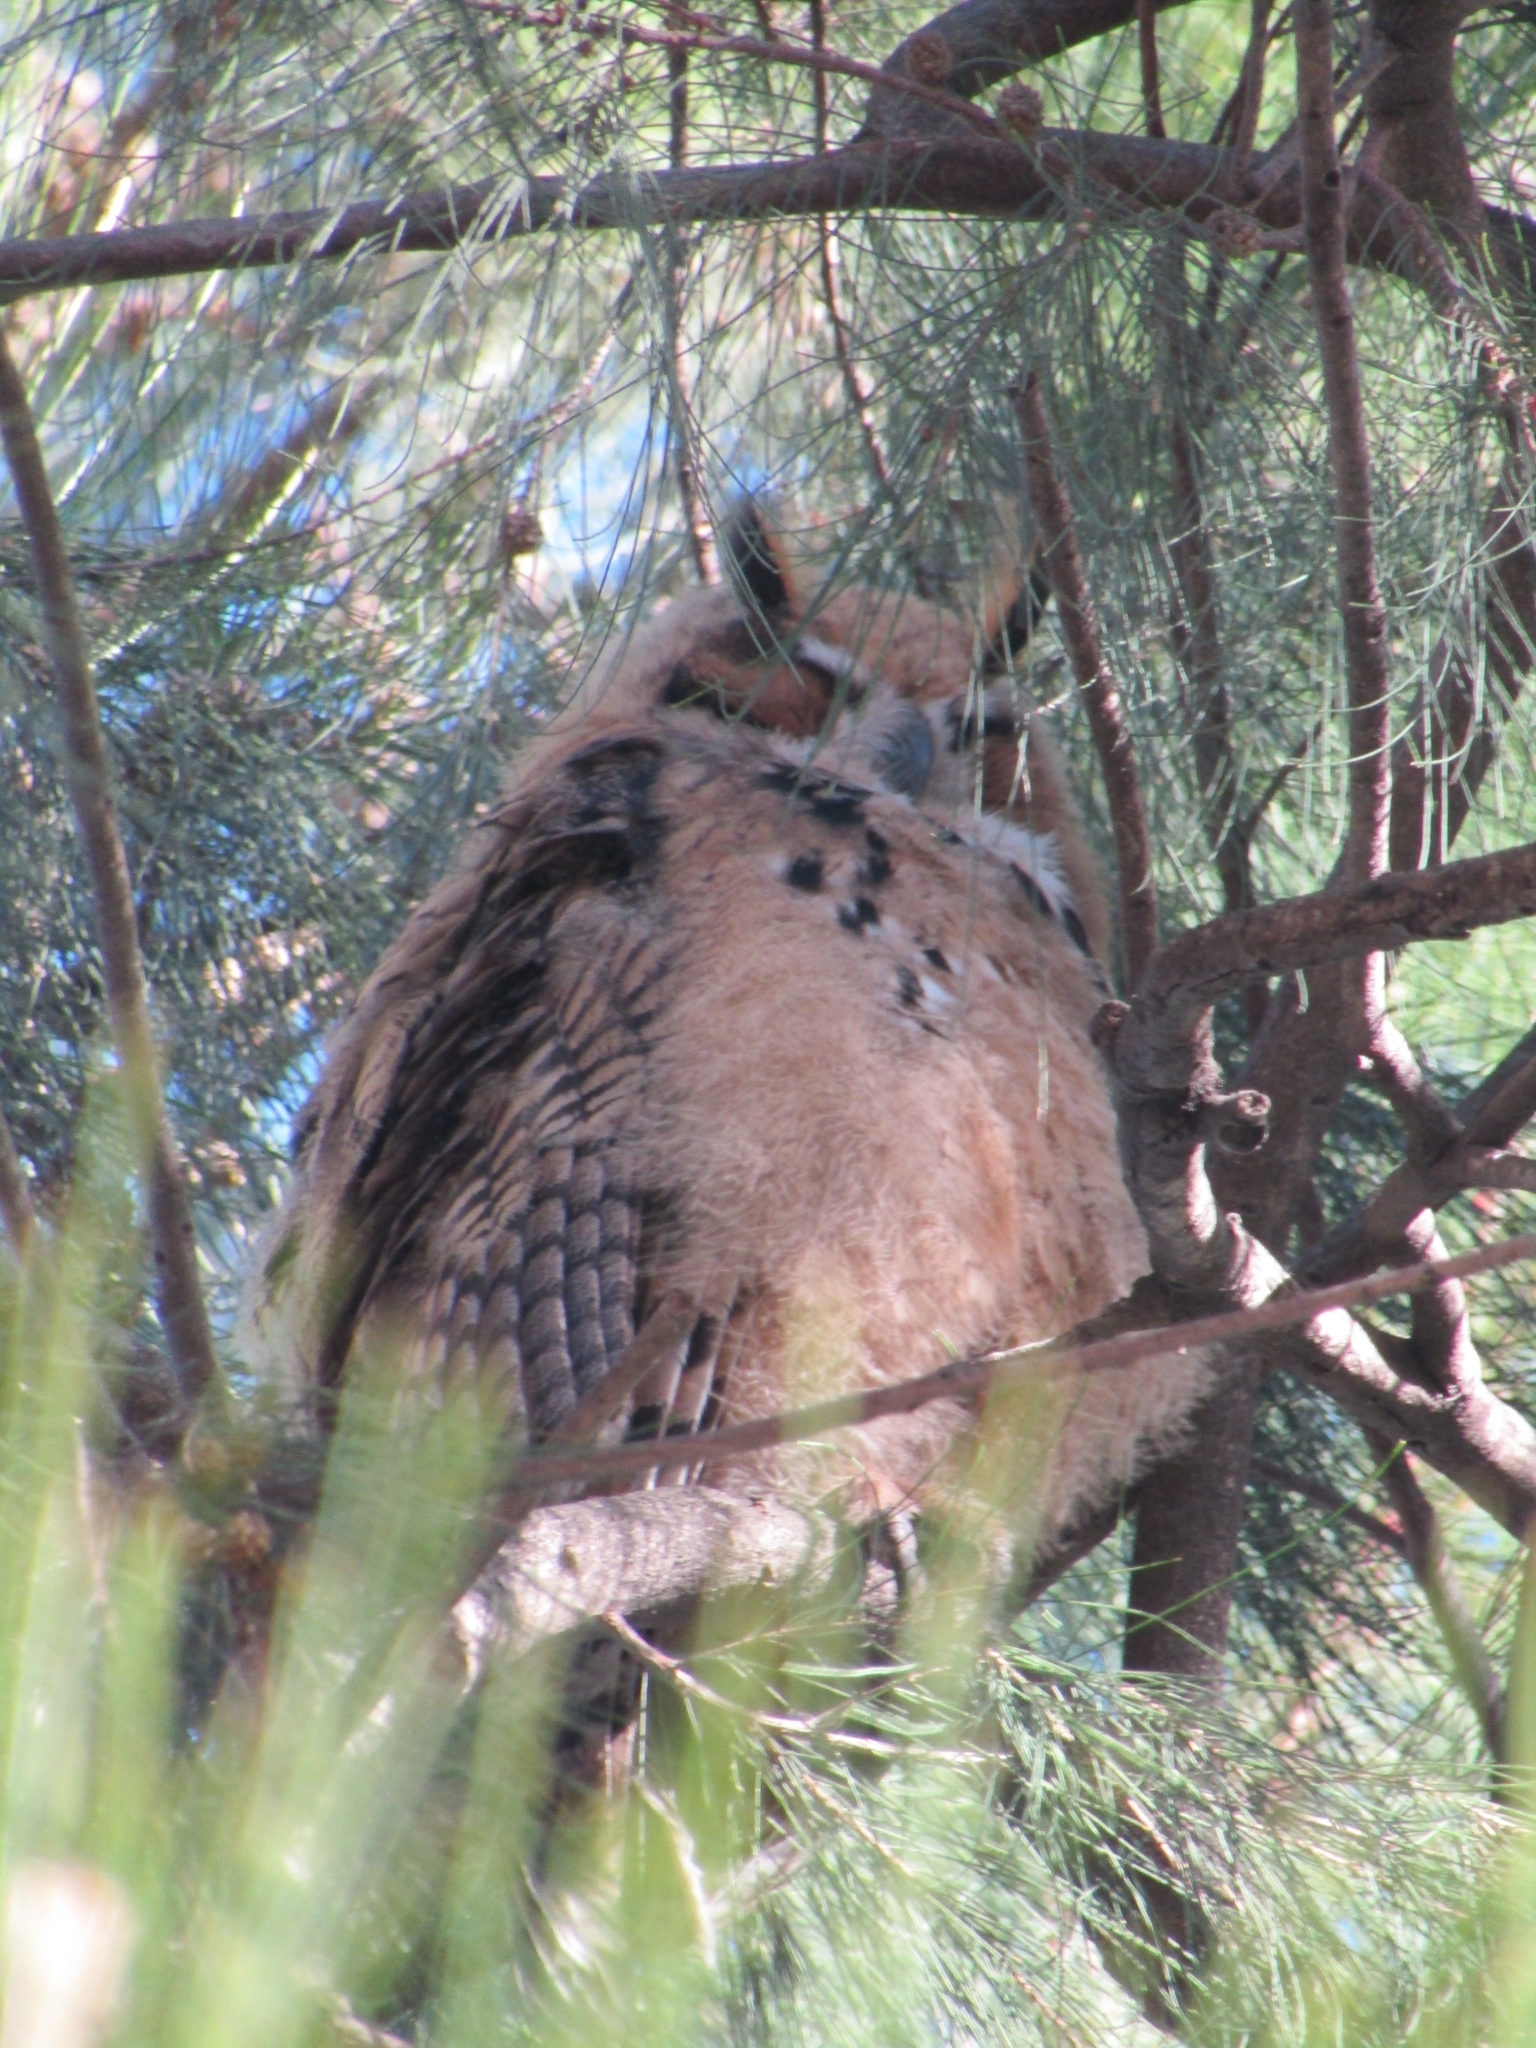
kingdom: Animalia
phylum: Chordata
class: Aves
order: Strigiformes
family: Strigidae
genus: Pseudoscops
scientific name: Pseudoscops clamator
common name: Striped owl
